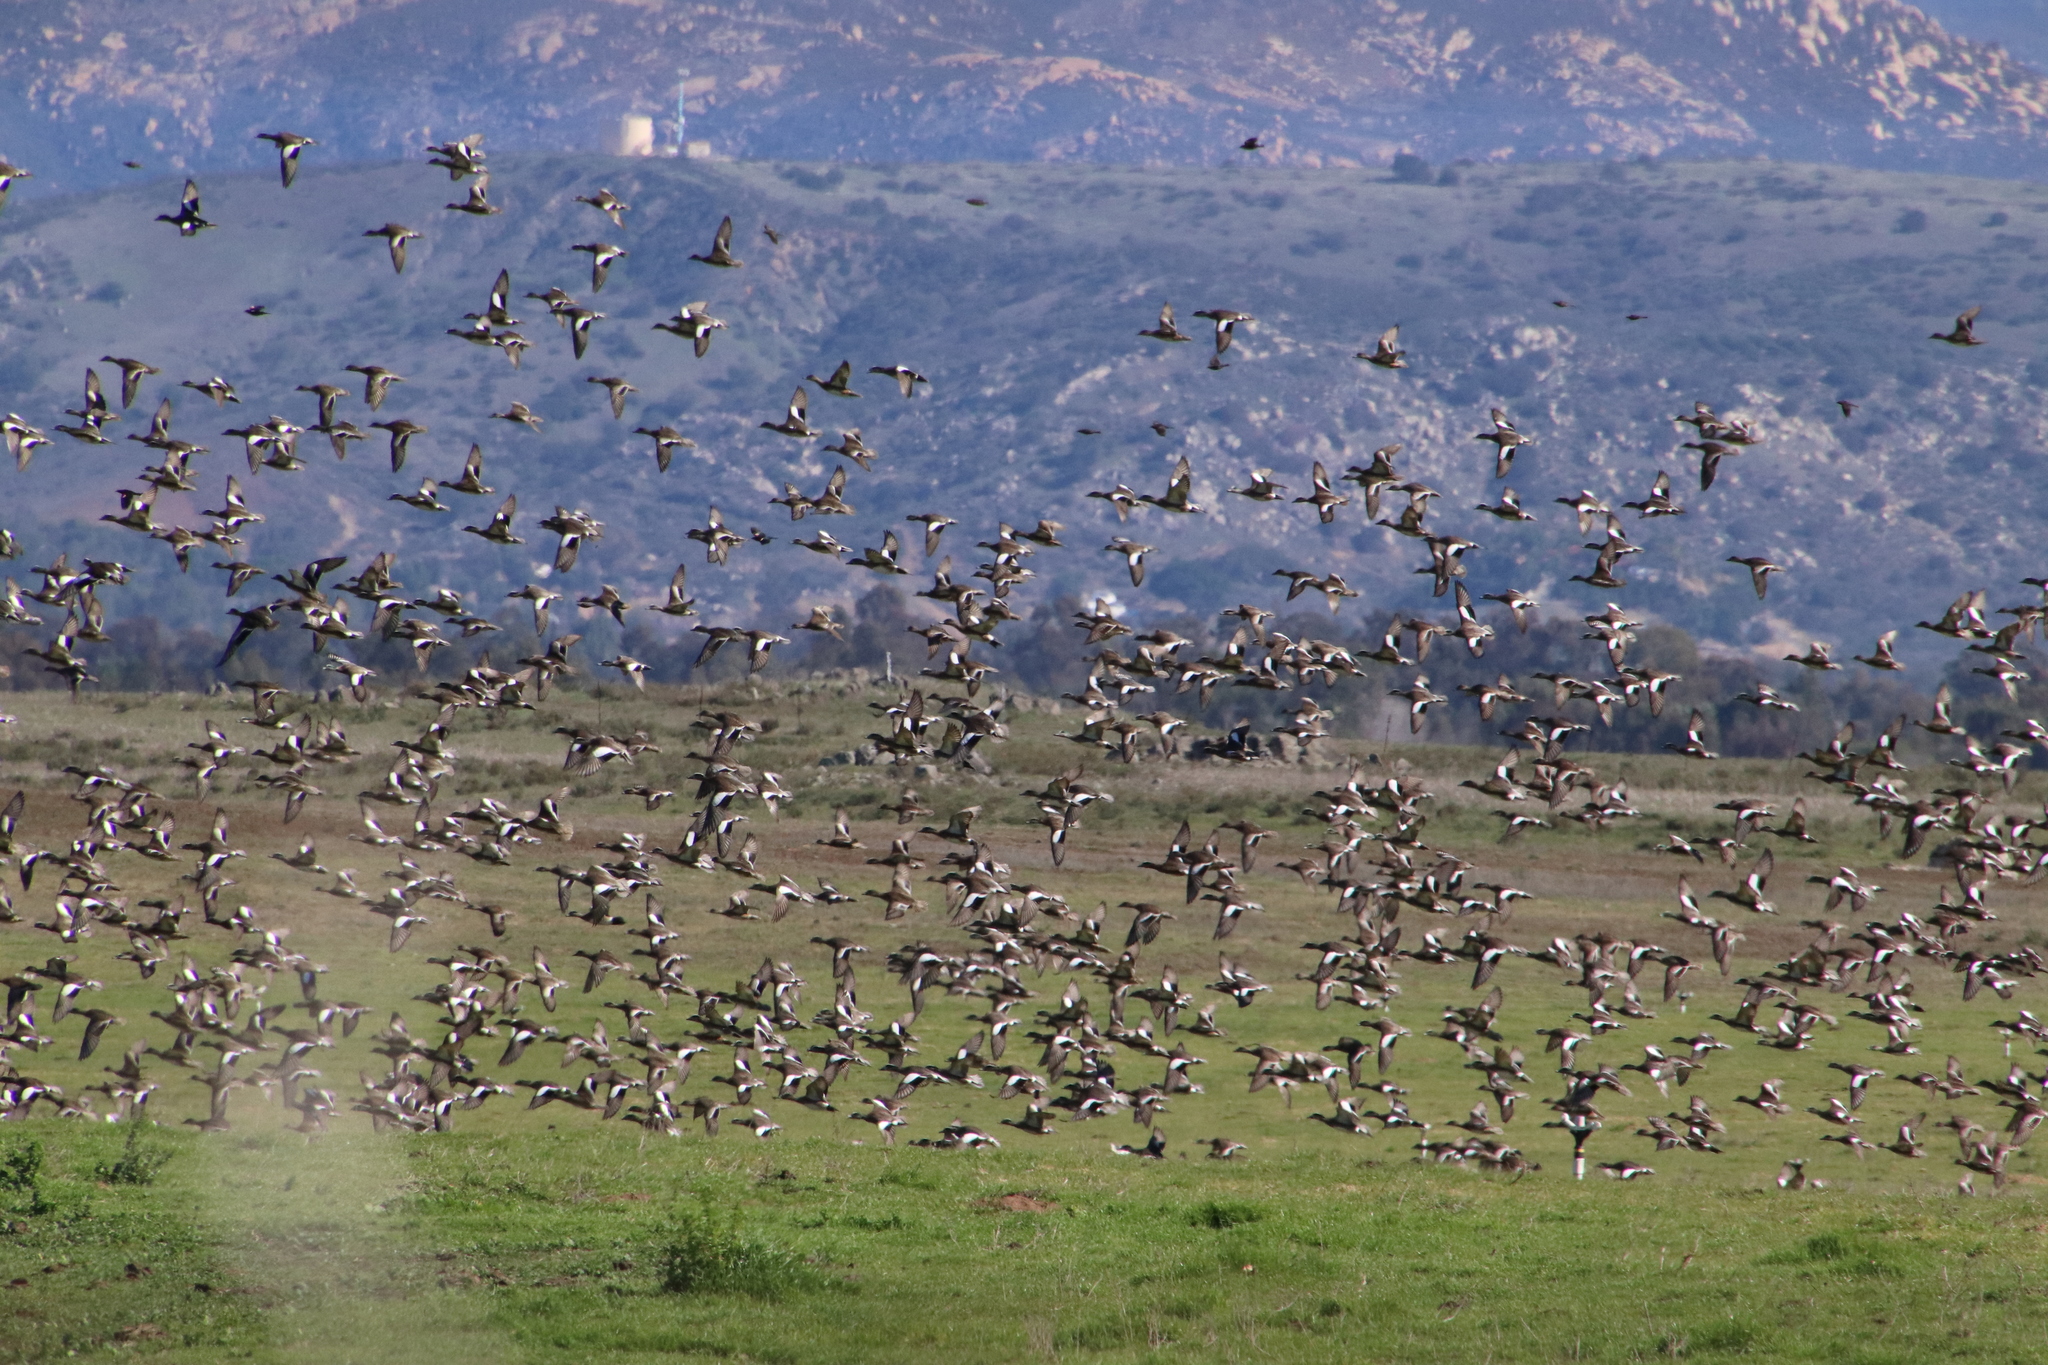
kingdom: Animalia
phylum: Chordata
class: Aves
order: Anseriformes
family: Anatidae
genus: Mareca
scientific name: Mareca americana
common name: American wigeon
